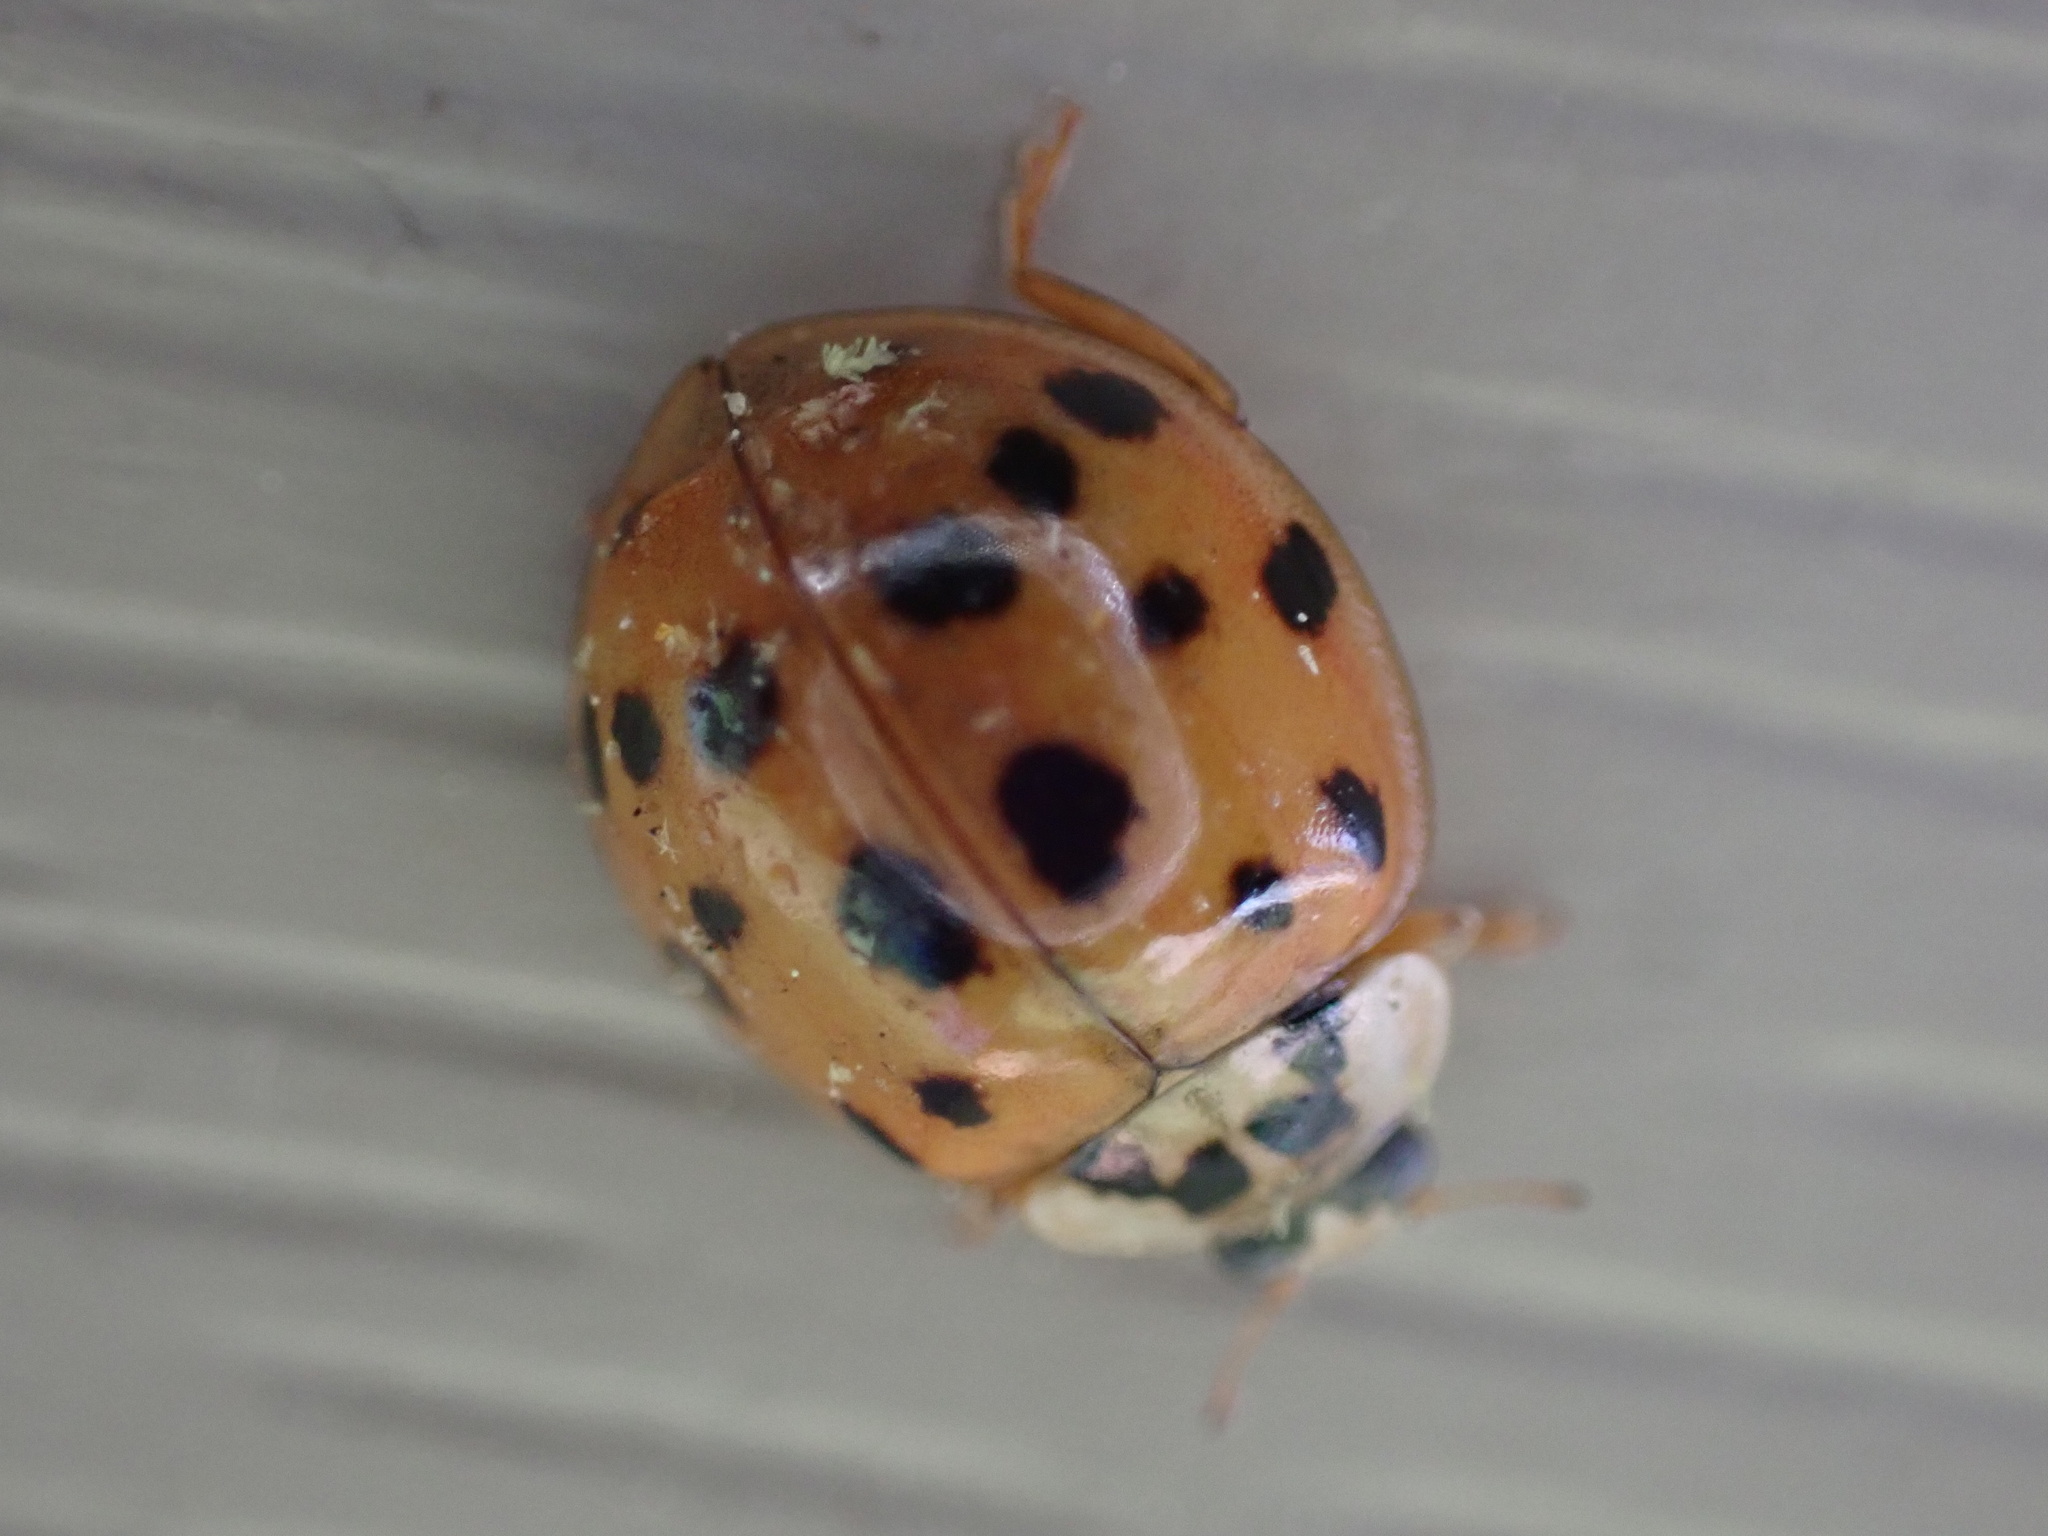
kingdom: Animalia
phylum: Arthropoda
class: Insecta
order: Coleoptera
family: Coccinellidae
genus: Harmonia
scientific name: Harmonia axyridis
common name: Harlequin ladybird
